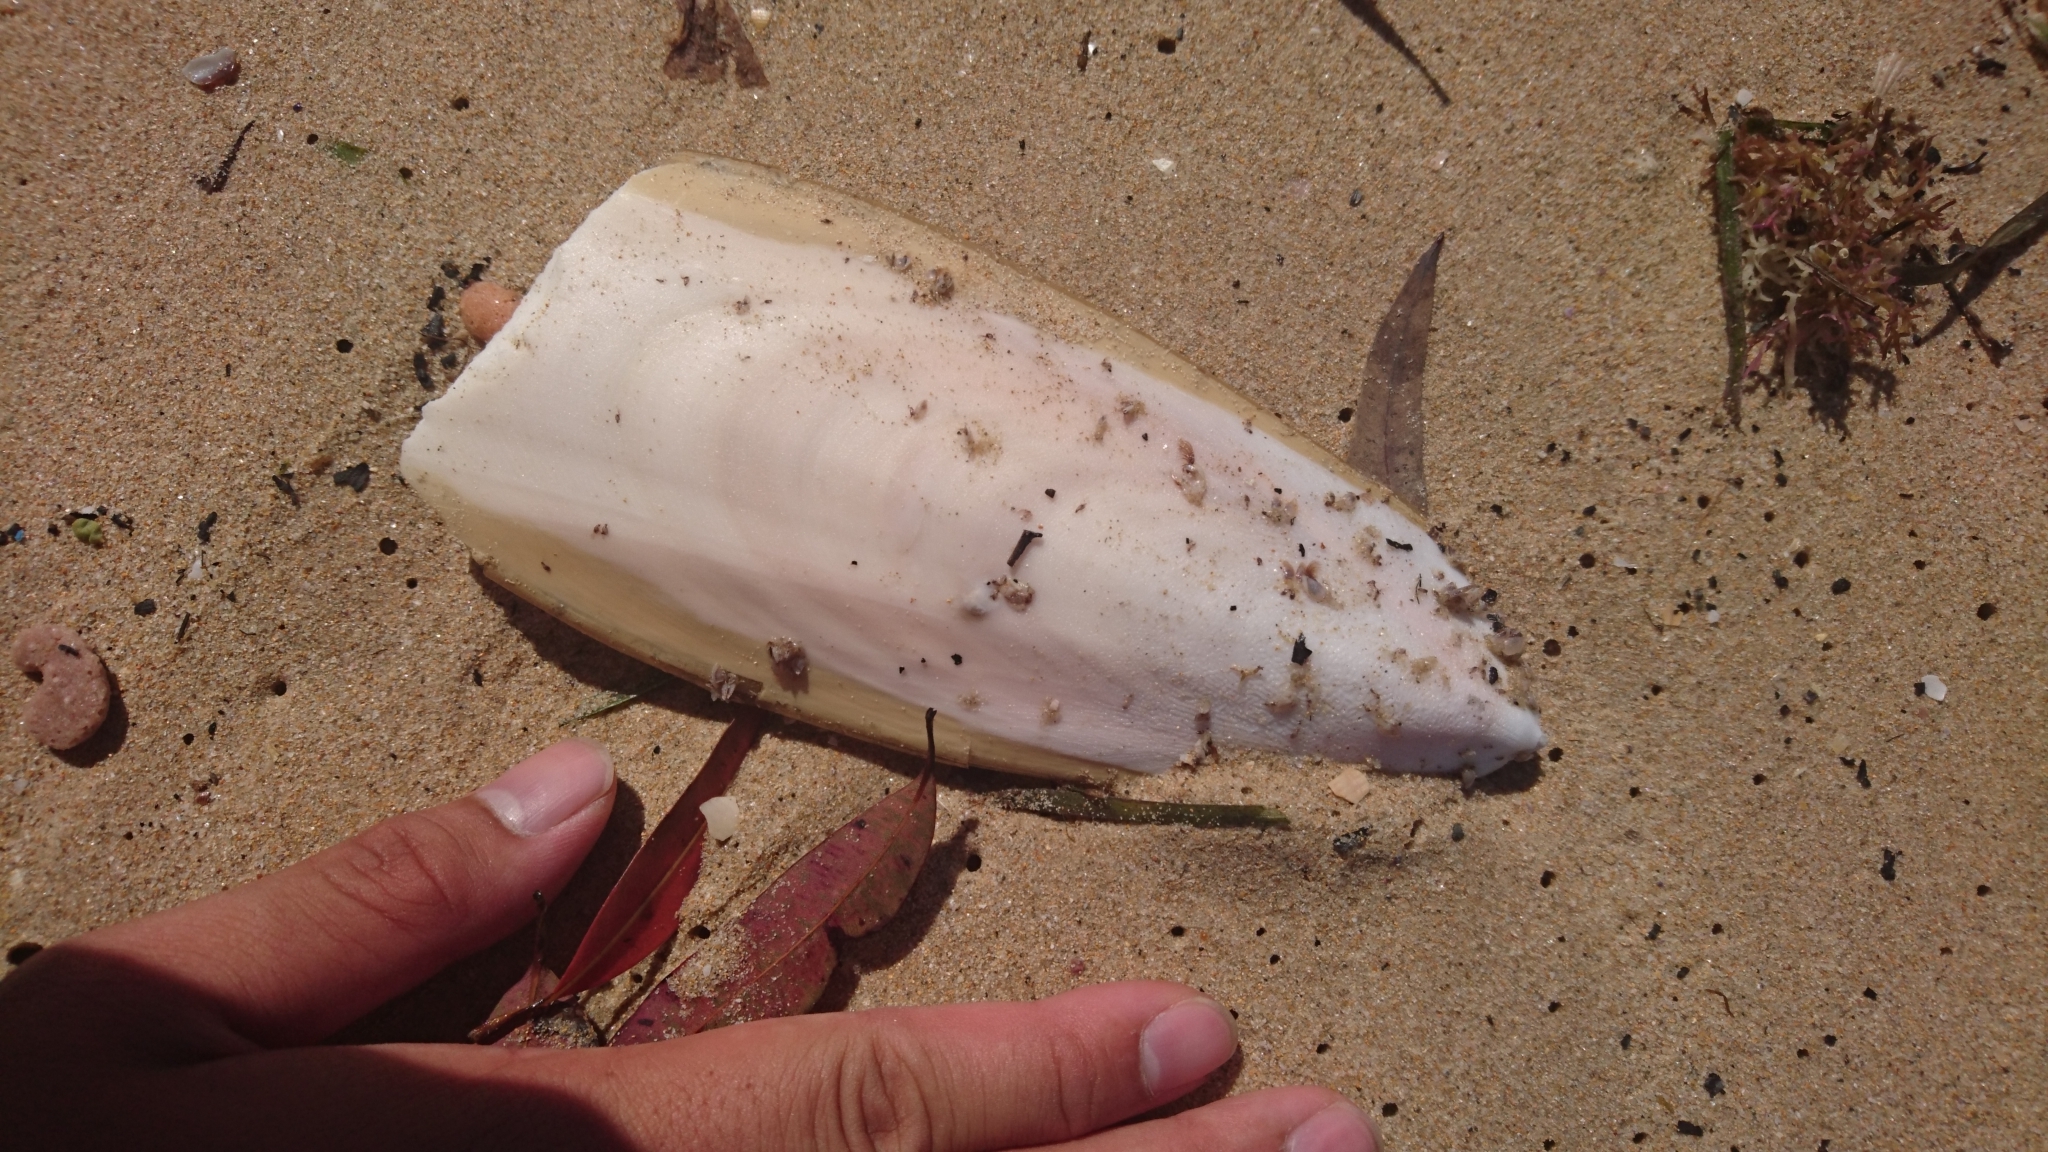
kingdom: Animalia
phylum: Mollusca
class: Cephalopoda
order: Sepiida
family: Sepiidae
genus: Ascarosepion
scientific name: Ascarosepion apama
